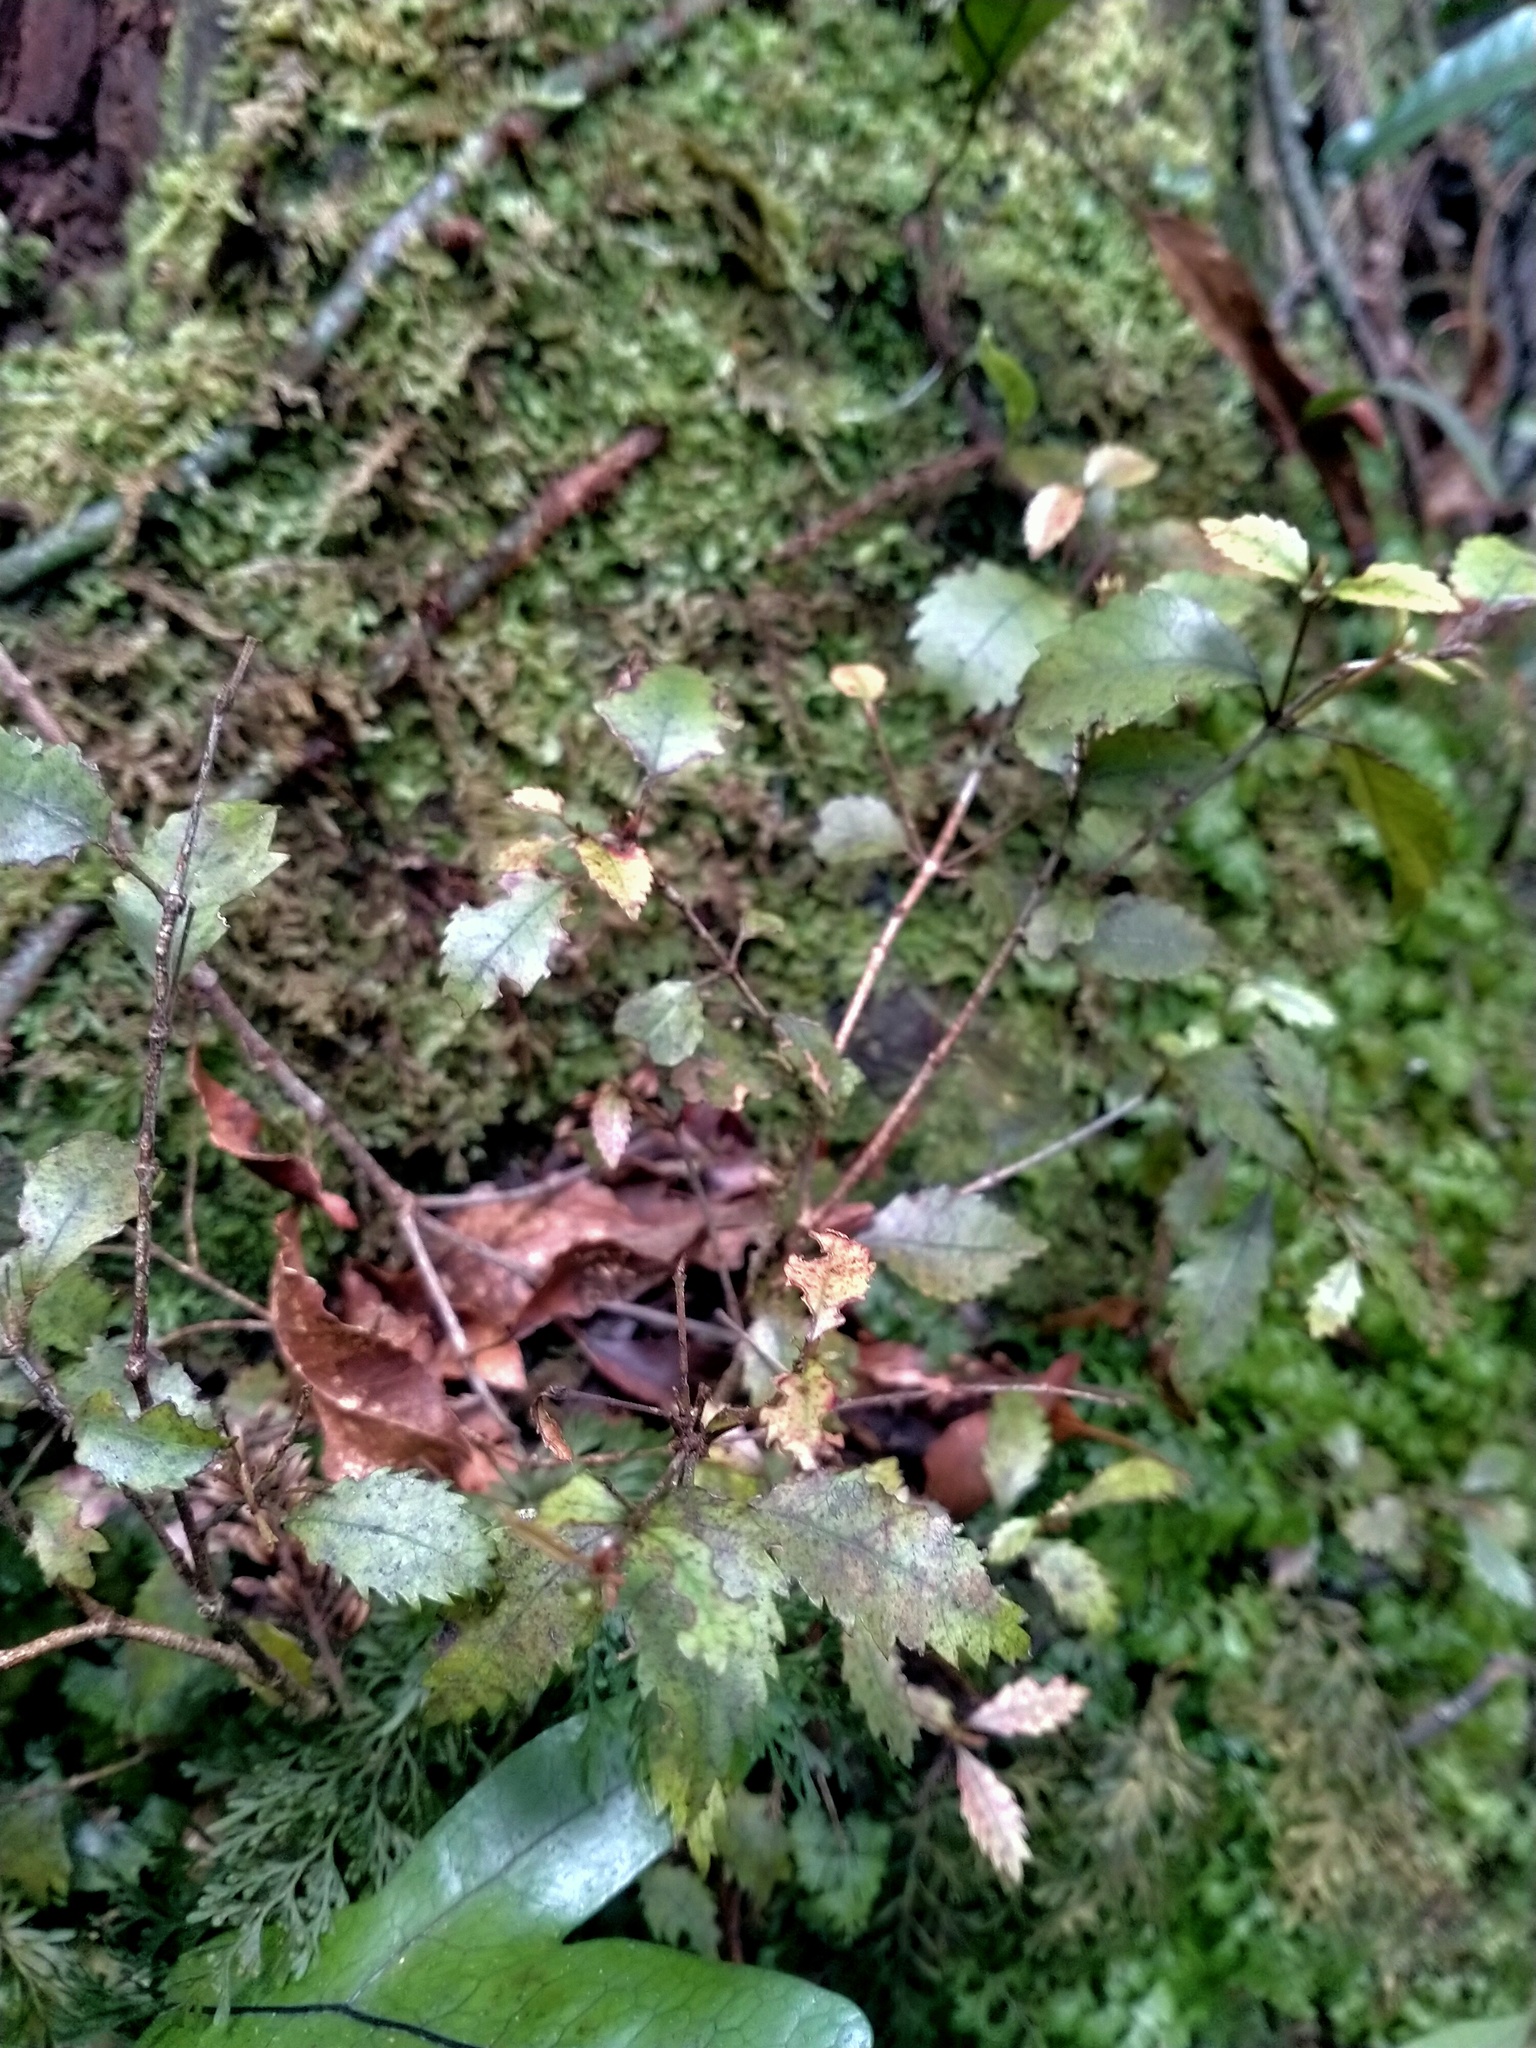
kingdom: Plantae
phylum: Tracheophyta
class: Magnoliopsida
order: Oxalidales
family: Cunoniaceae
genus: Pterophylla
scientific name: Pterophylla racemosa
